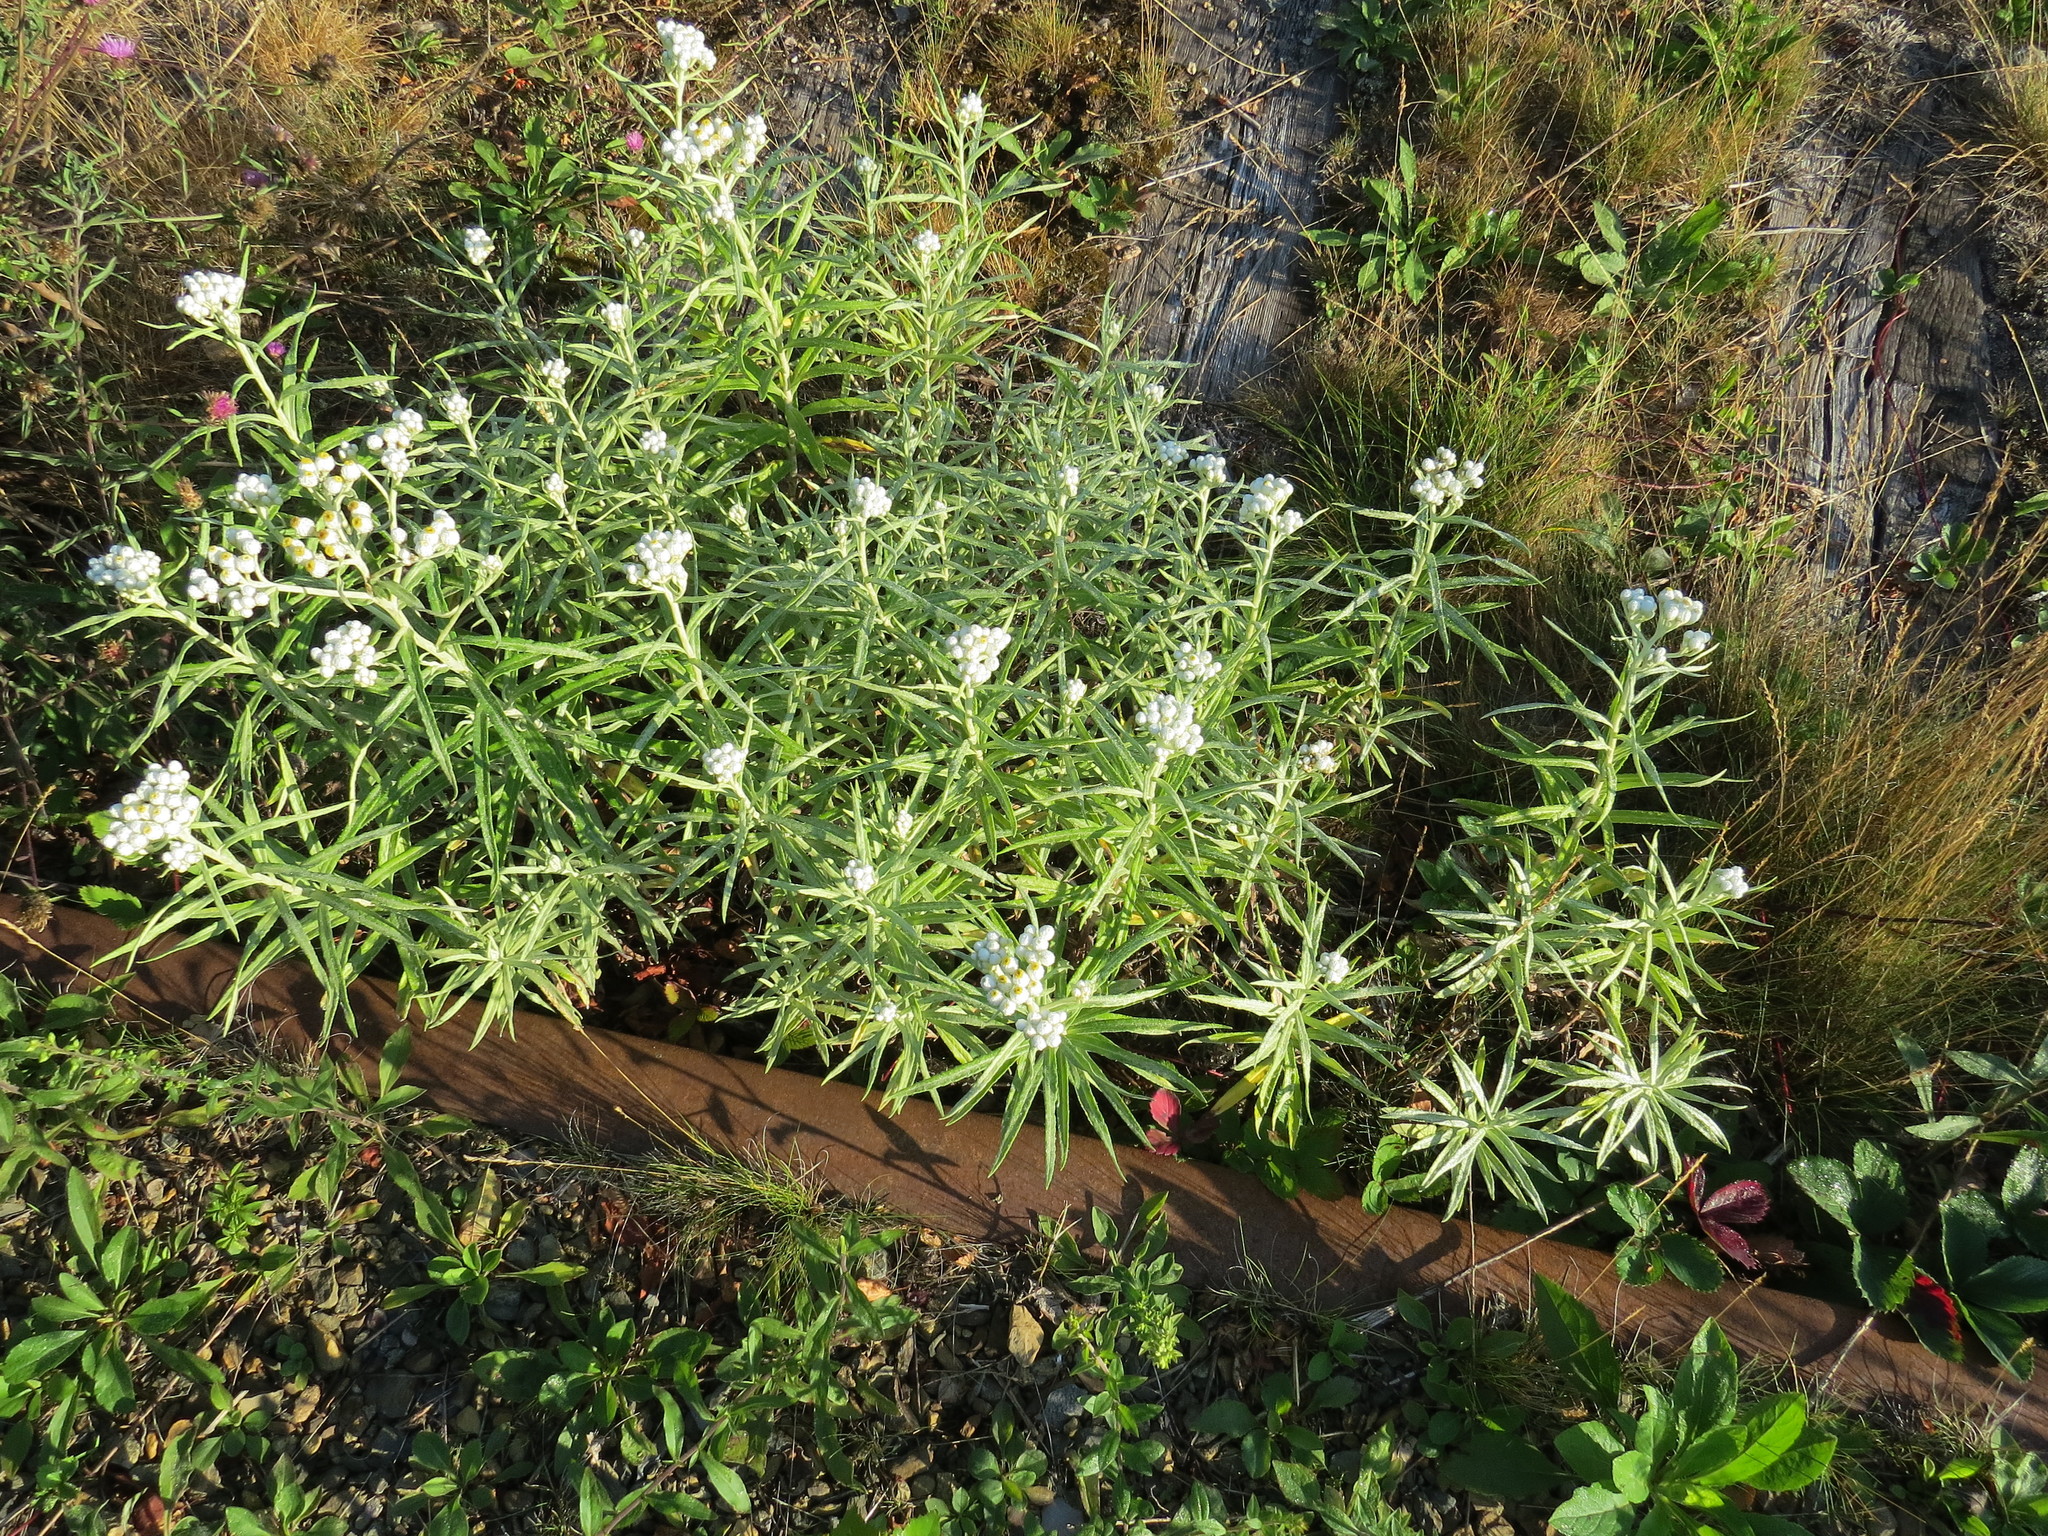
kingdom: Plantae
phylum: Tracheophyta
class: Magnoliopsida
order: Asterales
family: Asteraceae
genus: Anaphalis
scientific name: Anaphalis margaritacea
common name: Pearly everlasting
